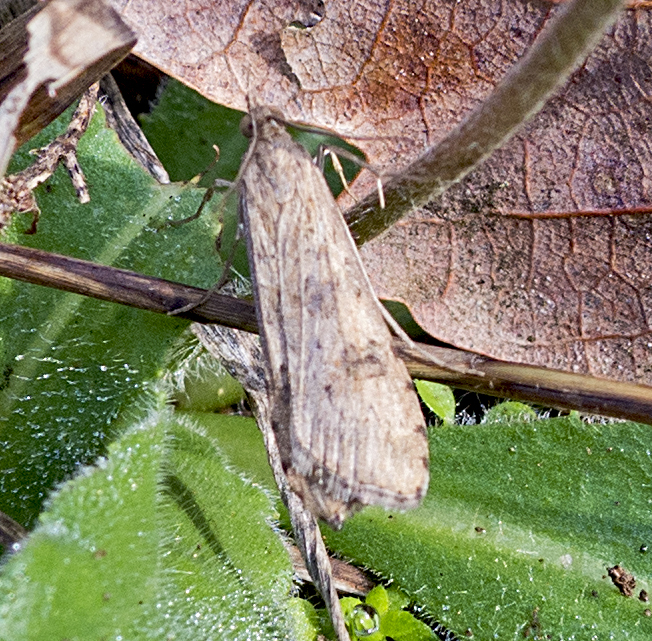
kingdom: Animalia
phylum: Arthropoda
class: Insecta
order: Lepidoptera
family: Crambidae
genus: Nomophila
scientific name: Nomophila noctuella
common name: Rush veneer
